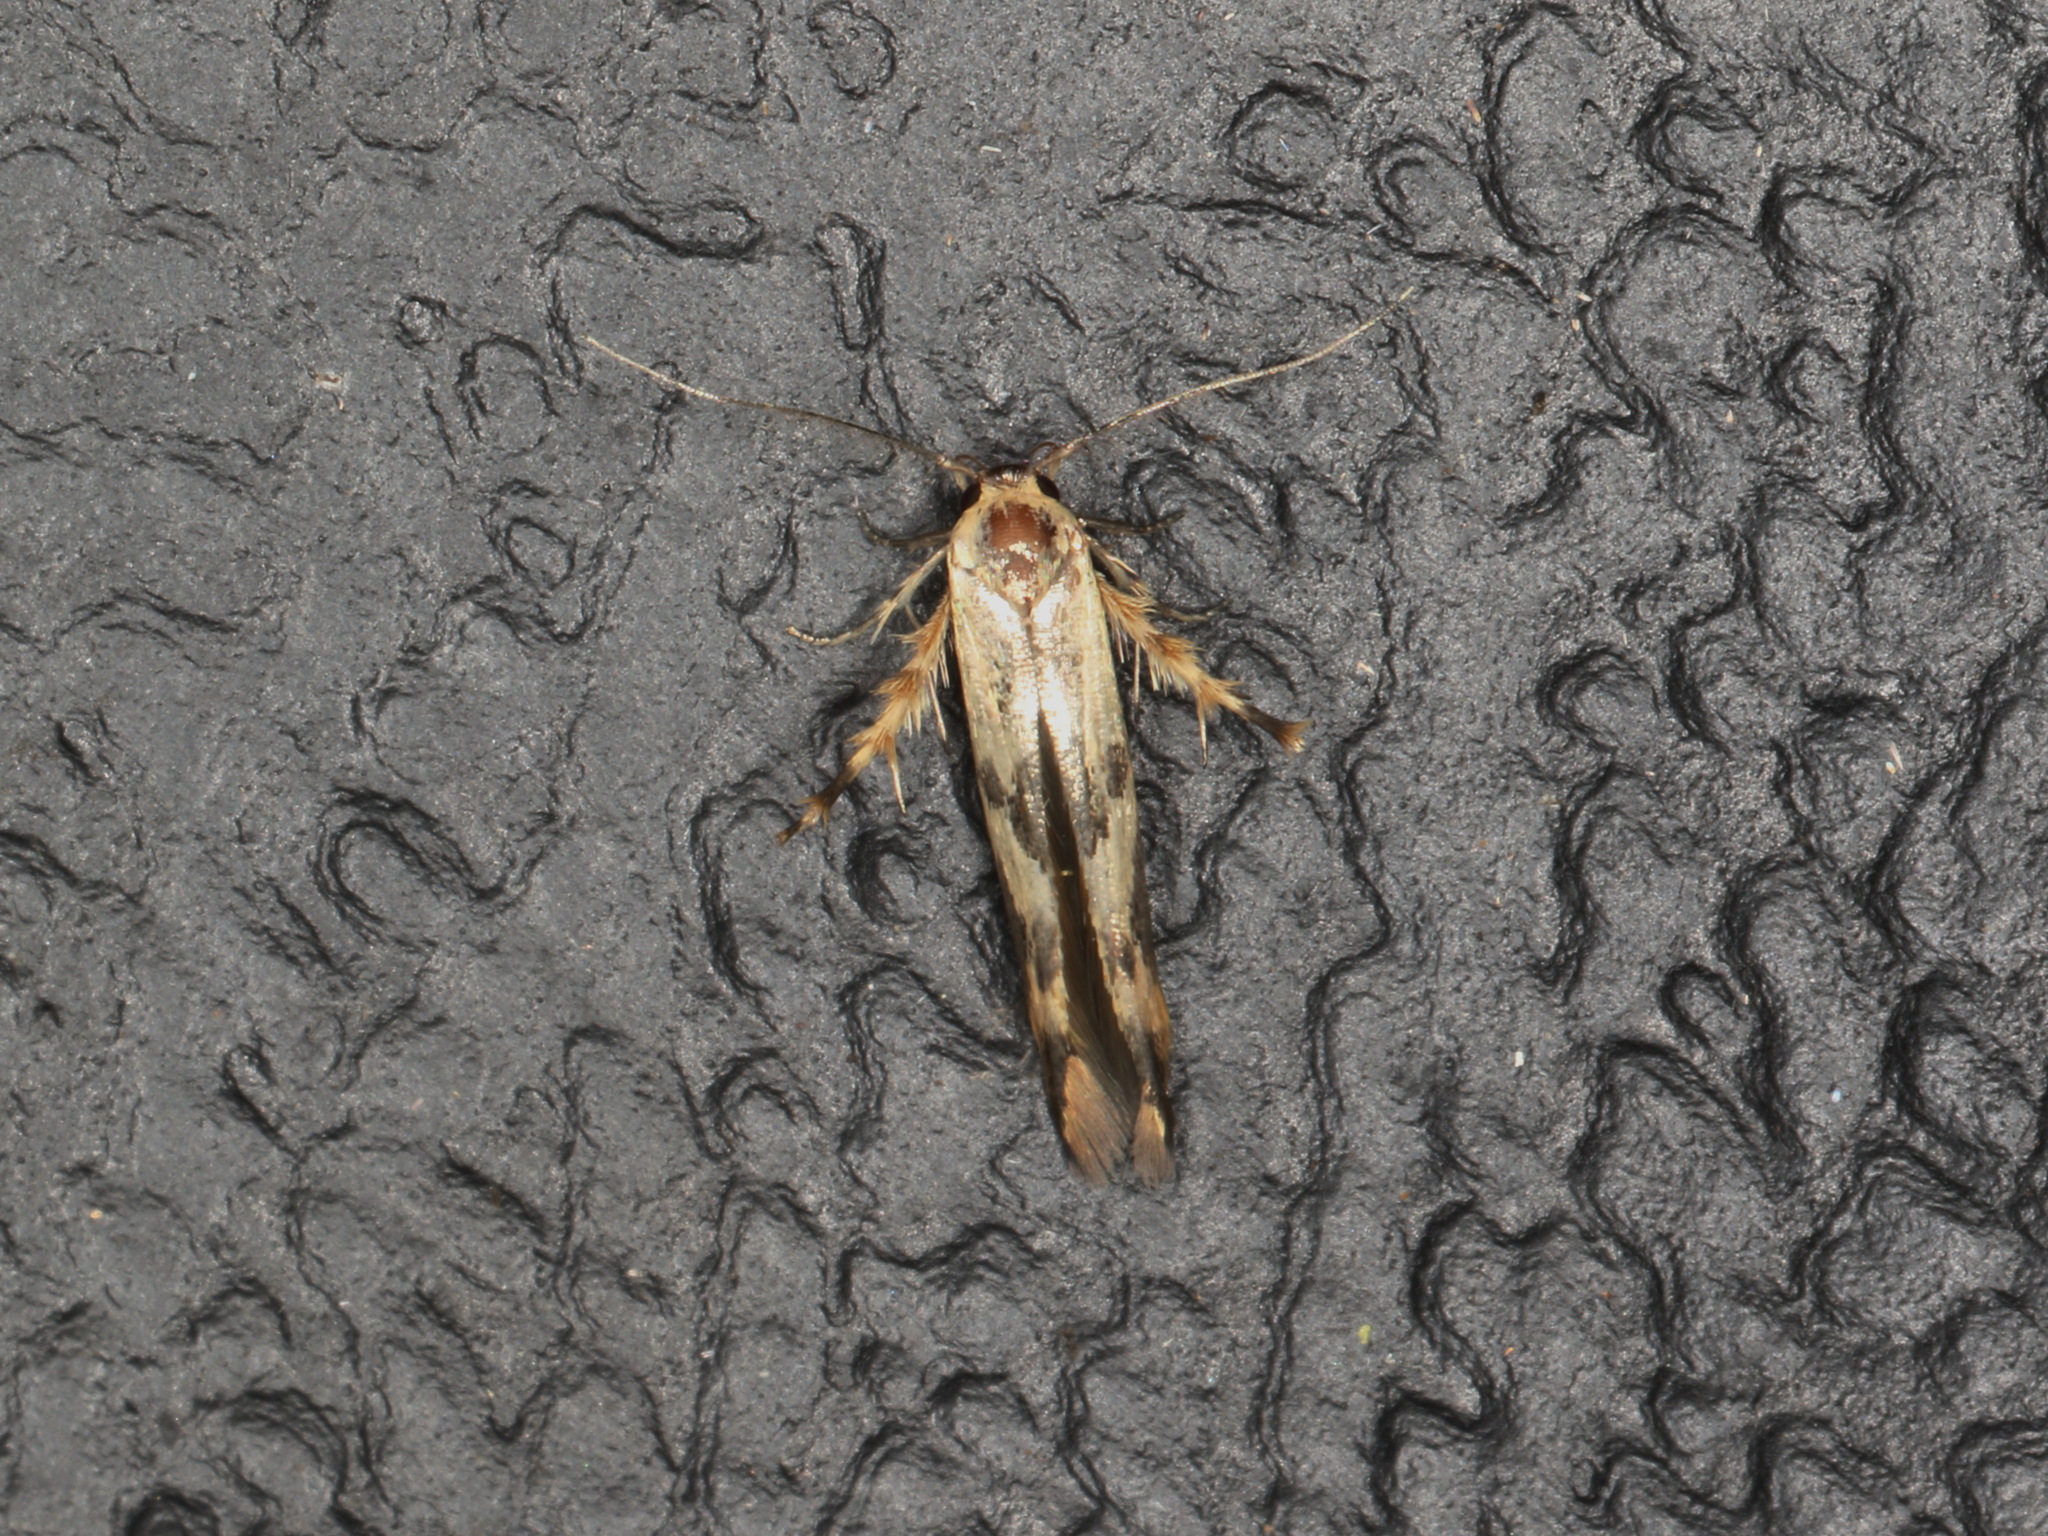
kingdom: Animalia
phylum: Arthropoda
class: Insecta
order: Lepidoptera
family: Stathmopodidae
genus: Stathmopoda
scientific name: Stathmopoda melanochra
